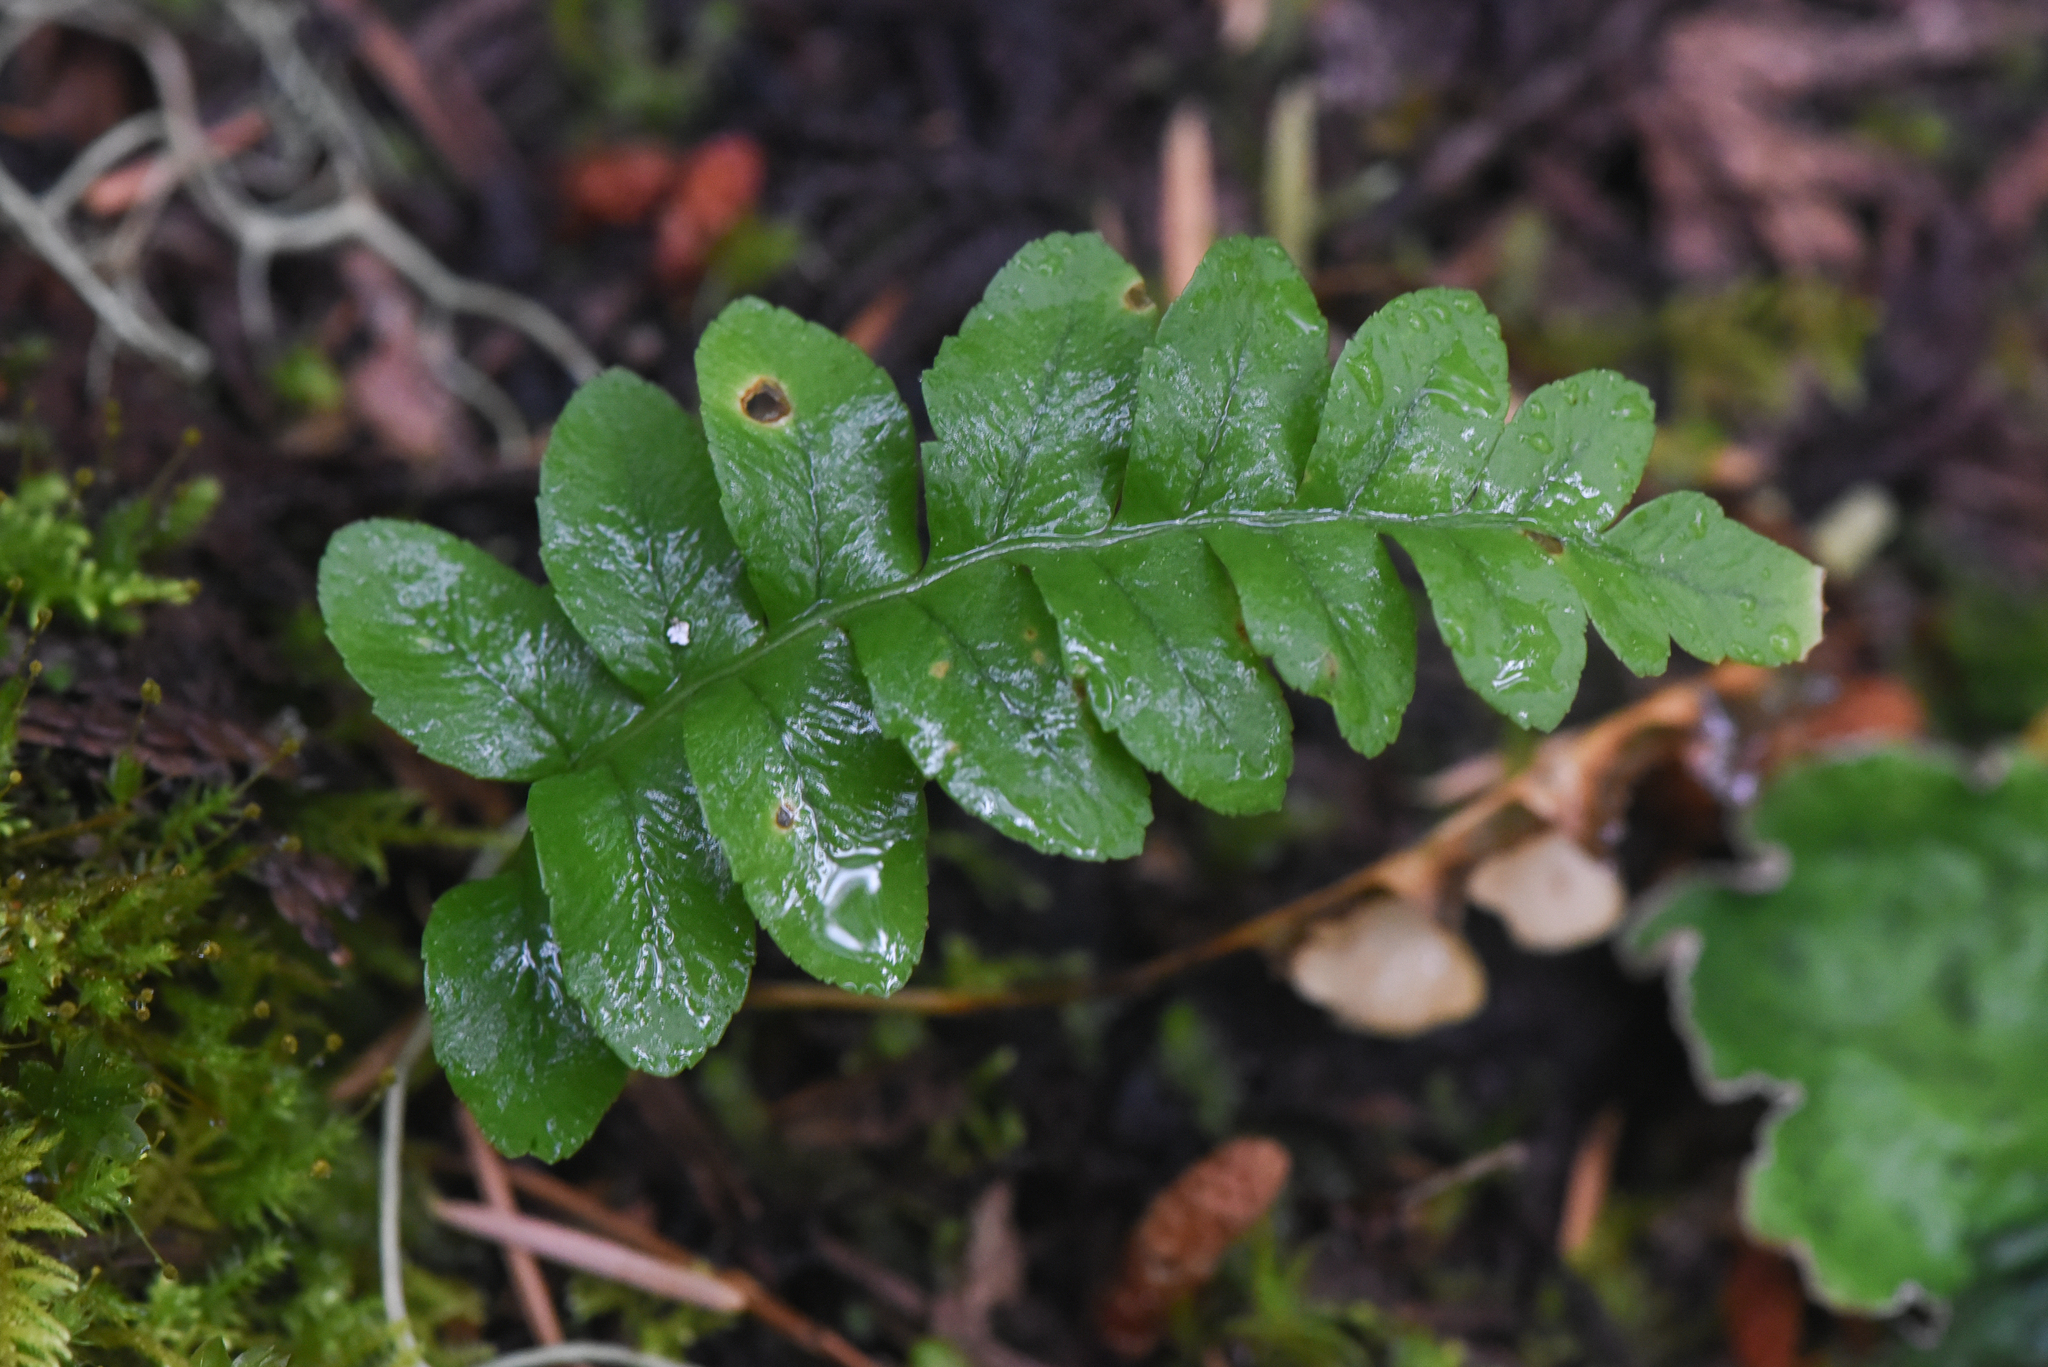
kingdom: Plantae
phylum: Tracheophyta
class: Polypodiopsida
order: Polypodiales
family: Polypodiaceae
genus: Polypodium
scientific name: Polypodium hesperium
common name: Western polypody
